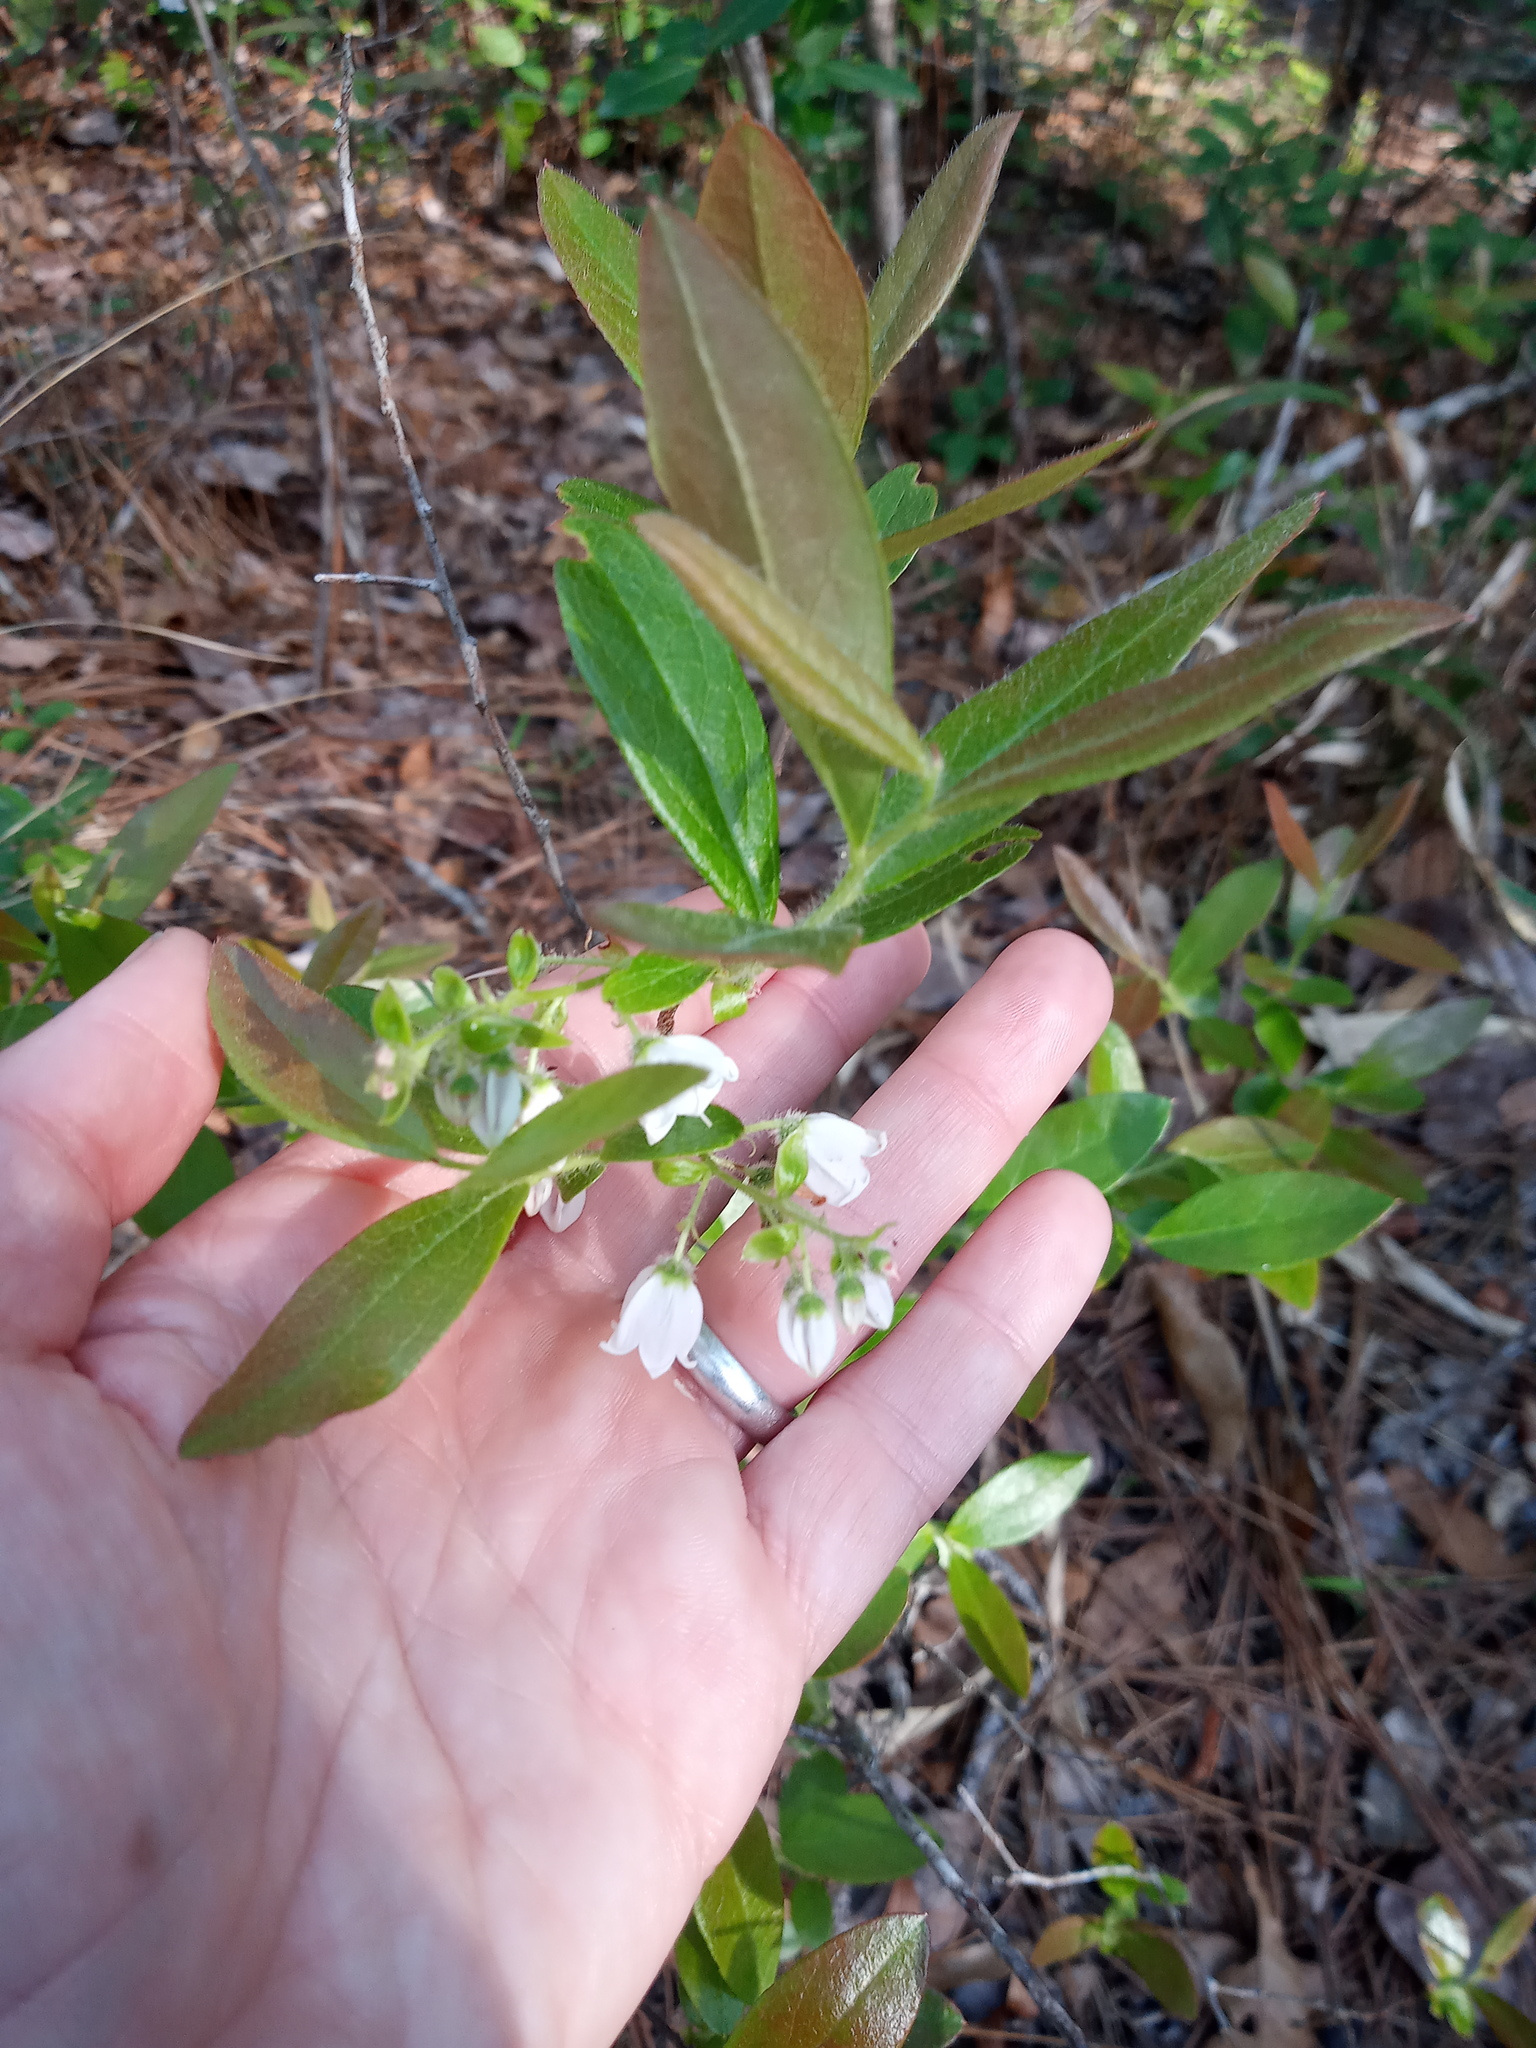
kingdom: Plantae
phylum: Tracheophyta
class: Magnoliopsida
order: Ericales
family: Ericaceae
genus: Gaylussacia
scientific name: Gaylussacia mosieri
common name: Hirsute huckleberry
